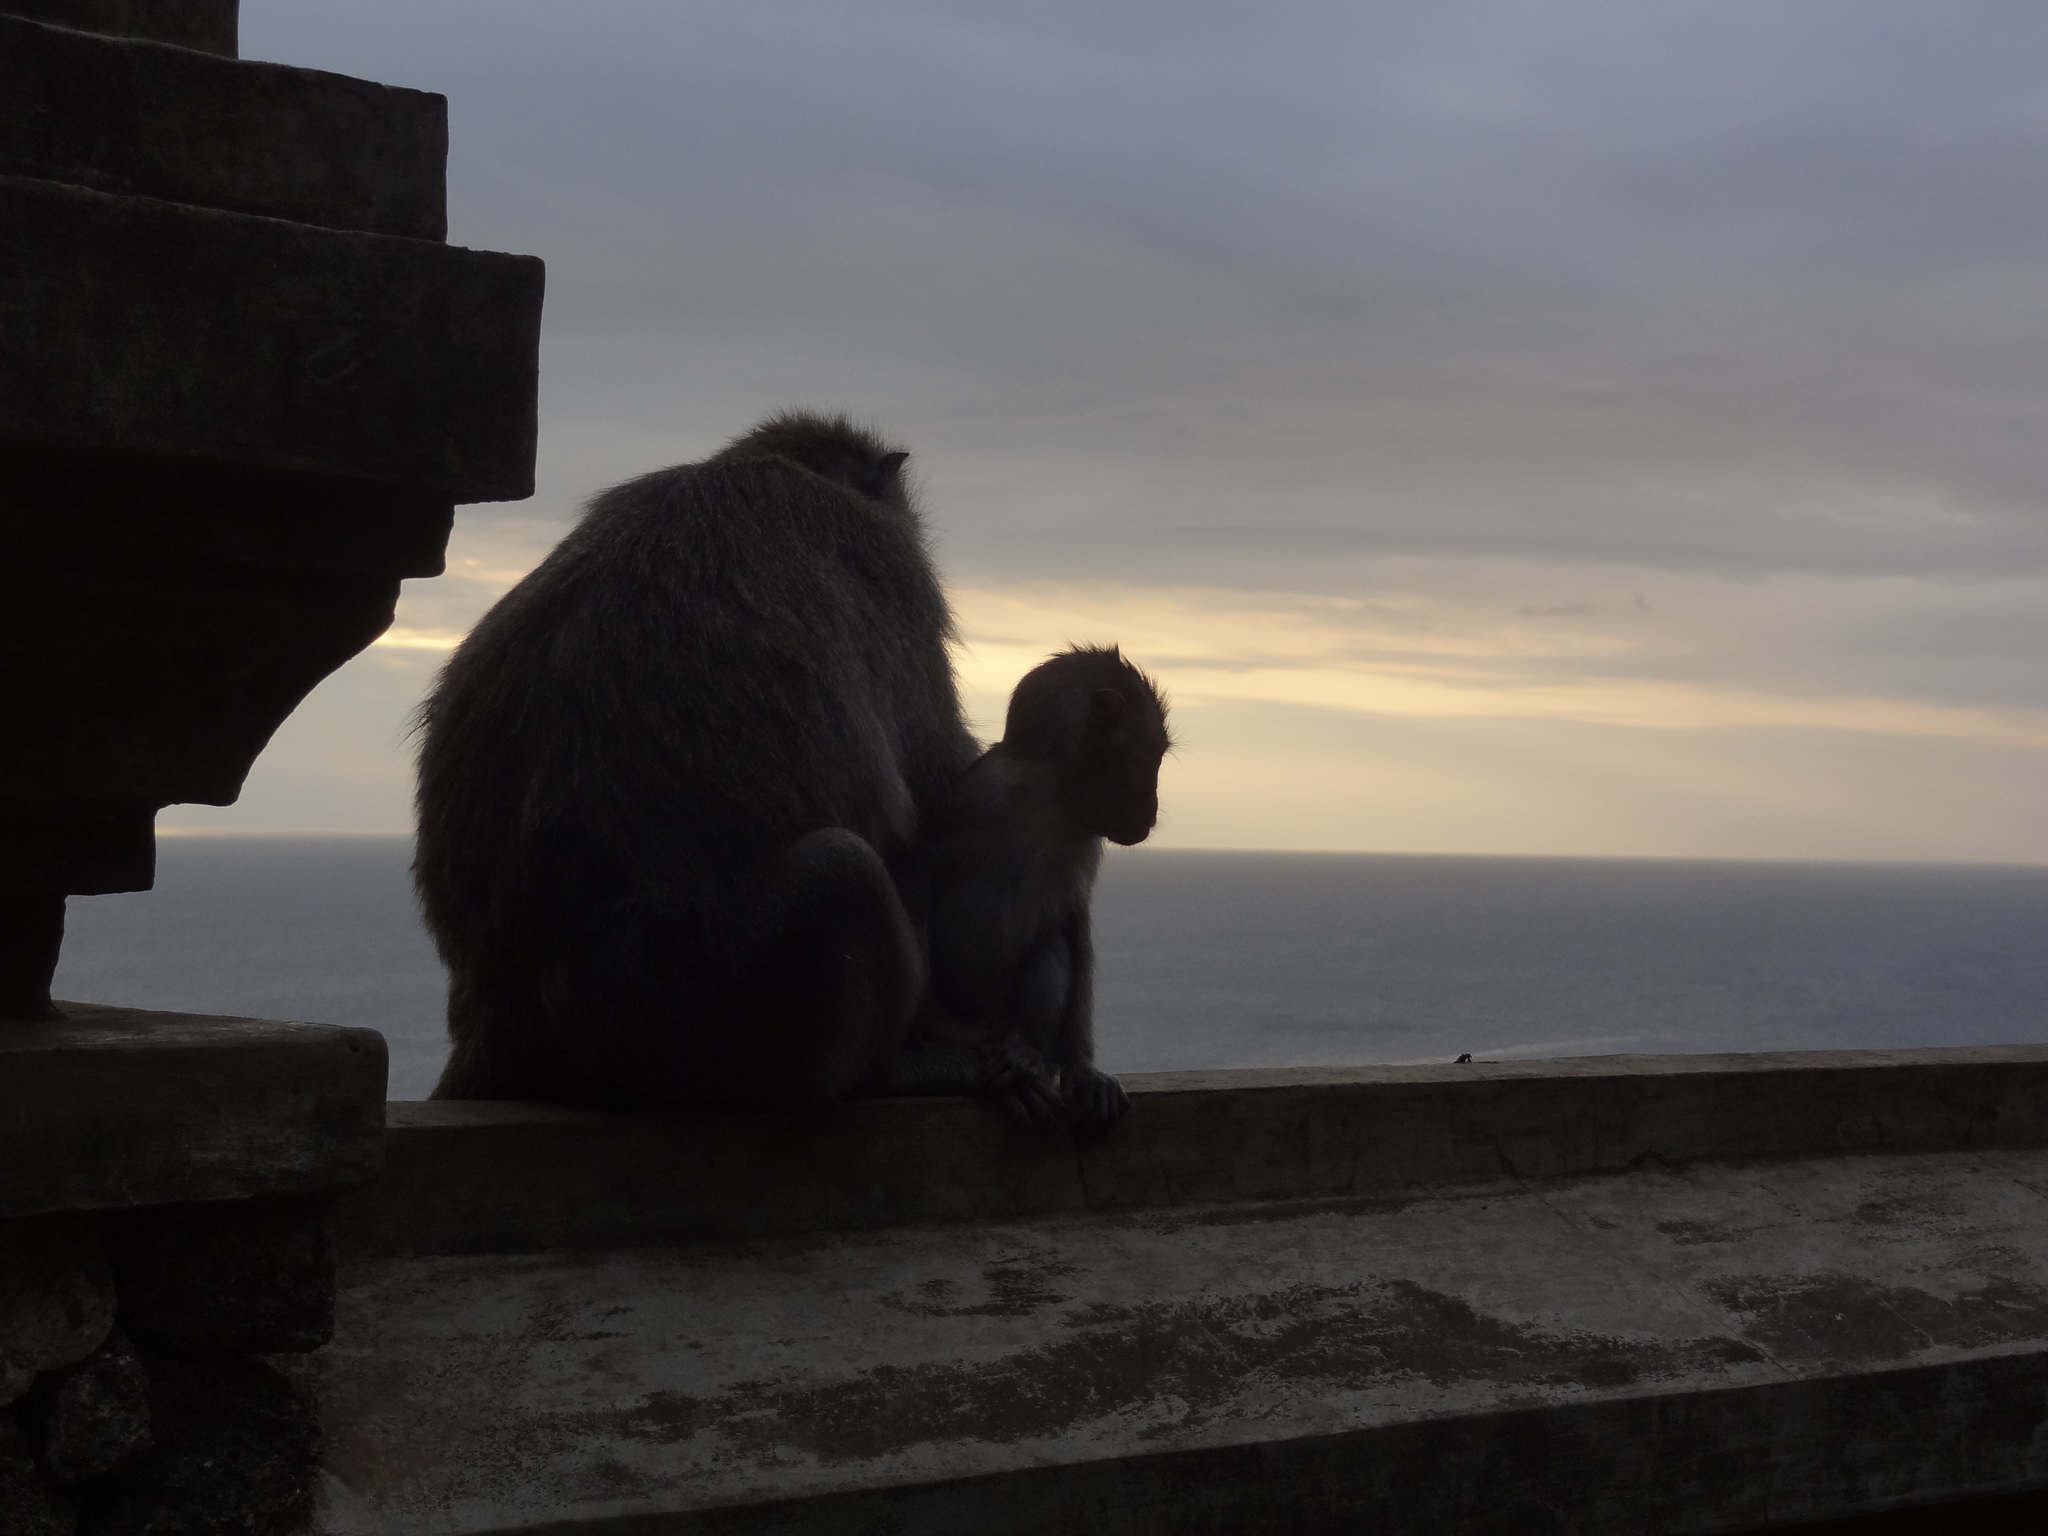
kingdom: Animalia
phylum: Chordata
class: Mammalia
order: Primates
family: Cercopithecidae
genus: Macaca
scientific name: Macaca fascicularis
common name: Crab-eating macaque
